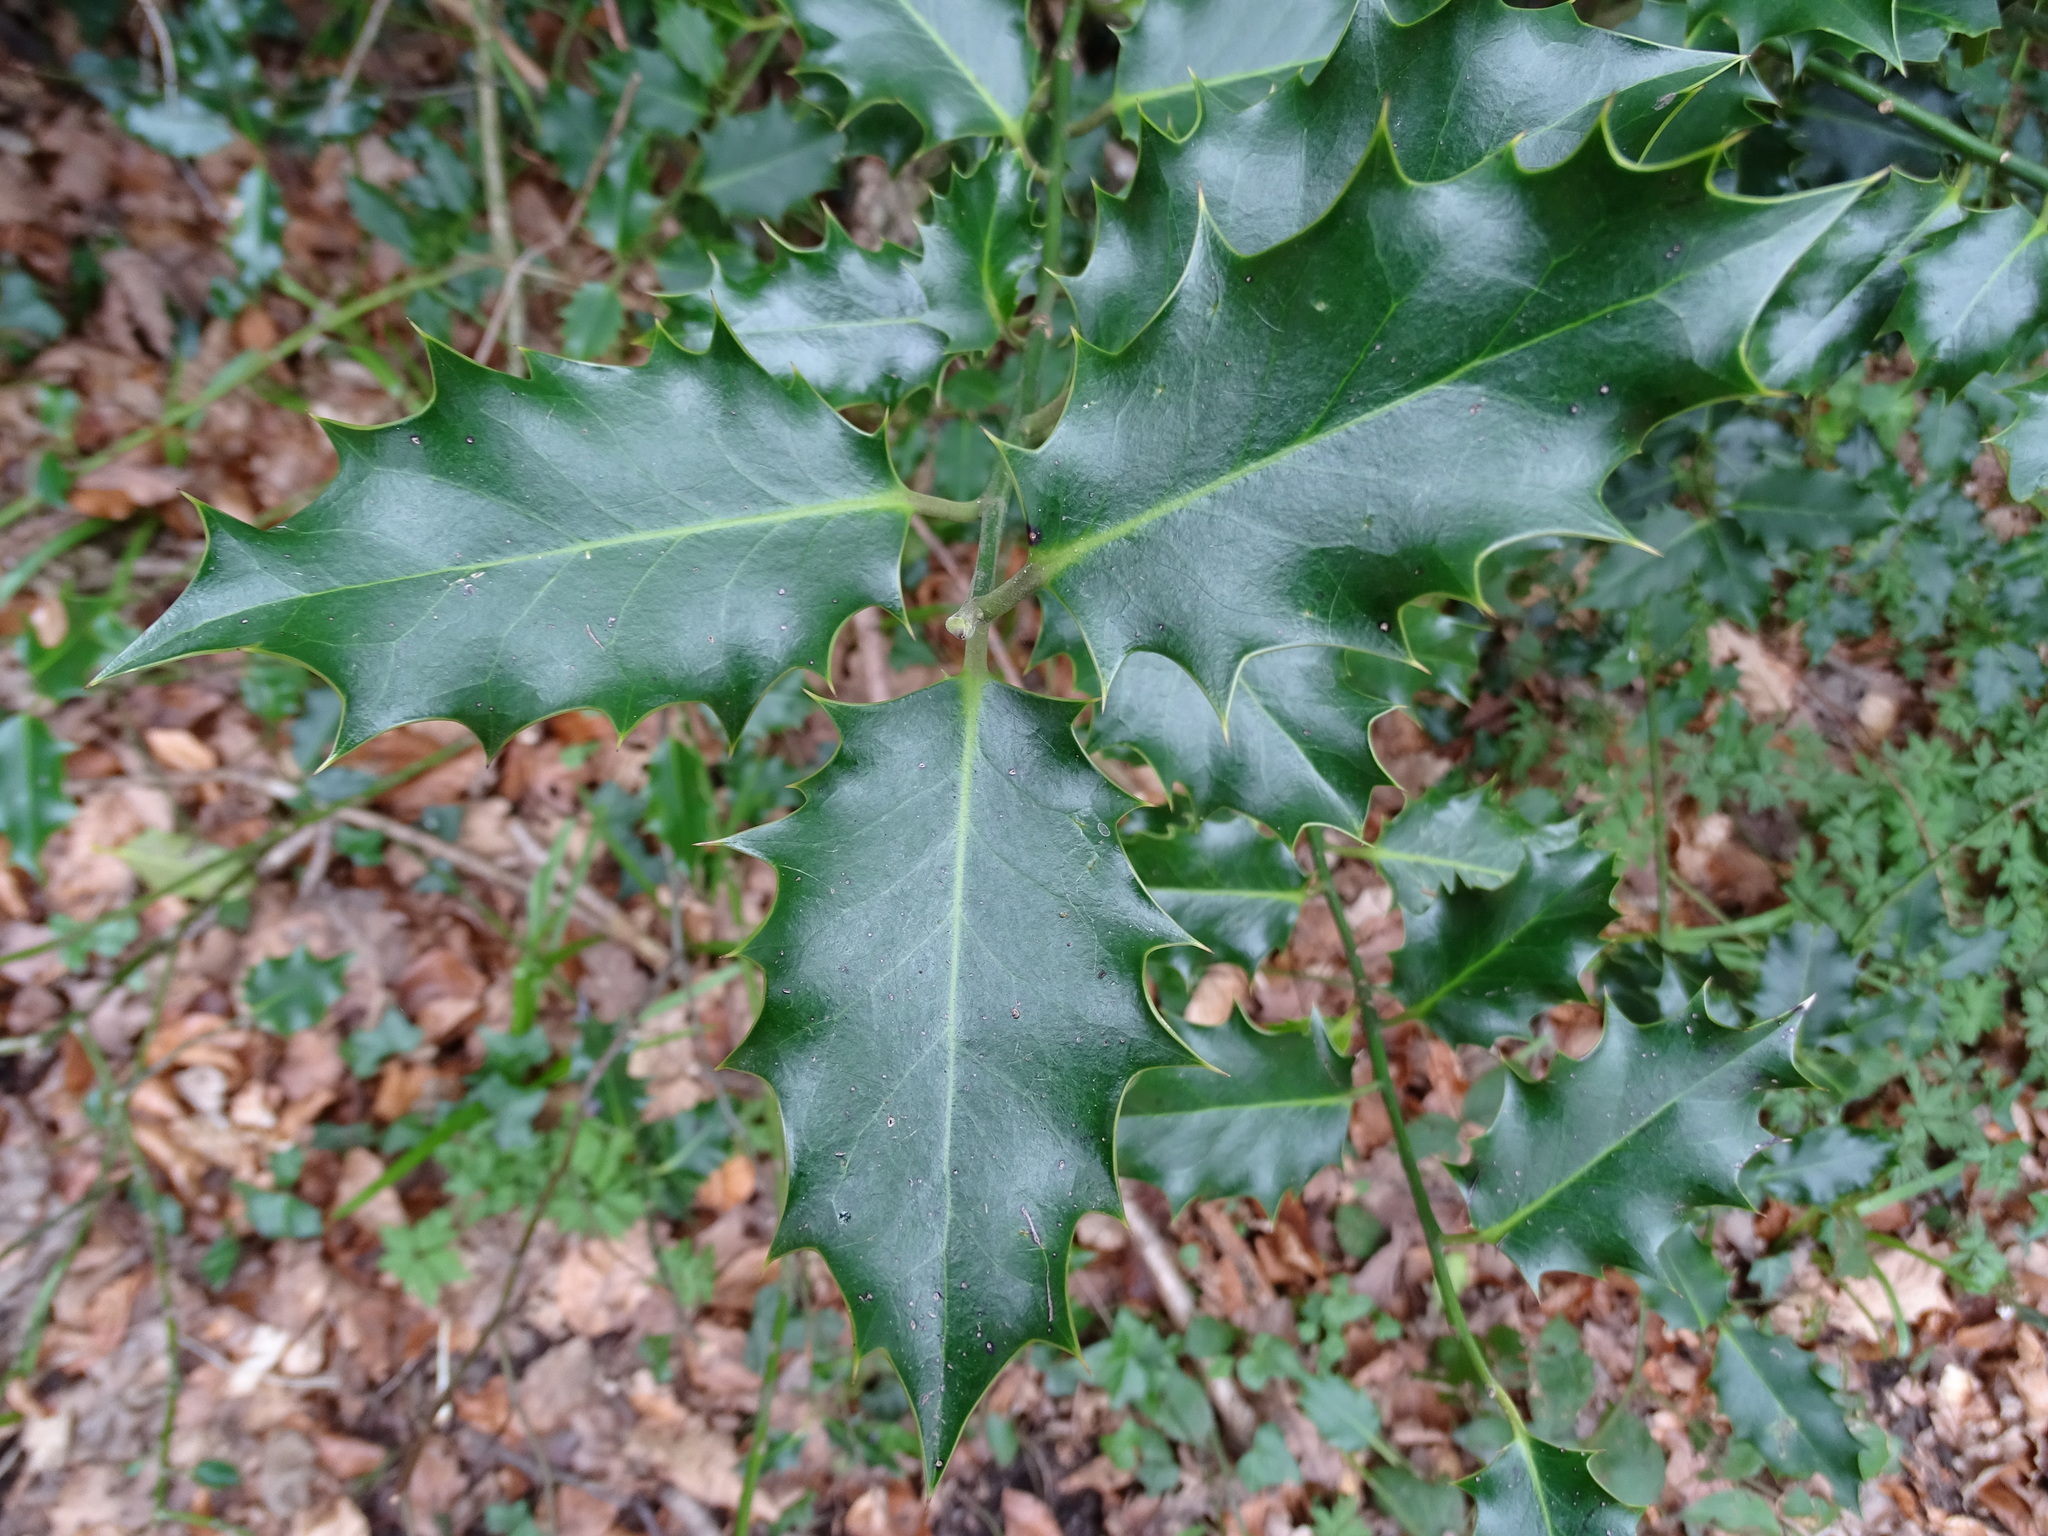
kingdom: Plantae
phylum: Tracheophyta
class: Magnoliopsida
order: Aquifoliales
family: Aquifoliaceae
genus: Ilex
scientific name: Ilex aquifolium
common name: English holly
